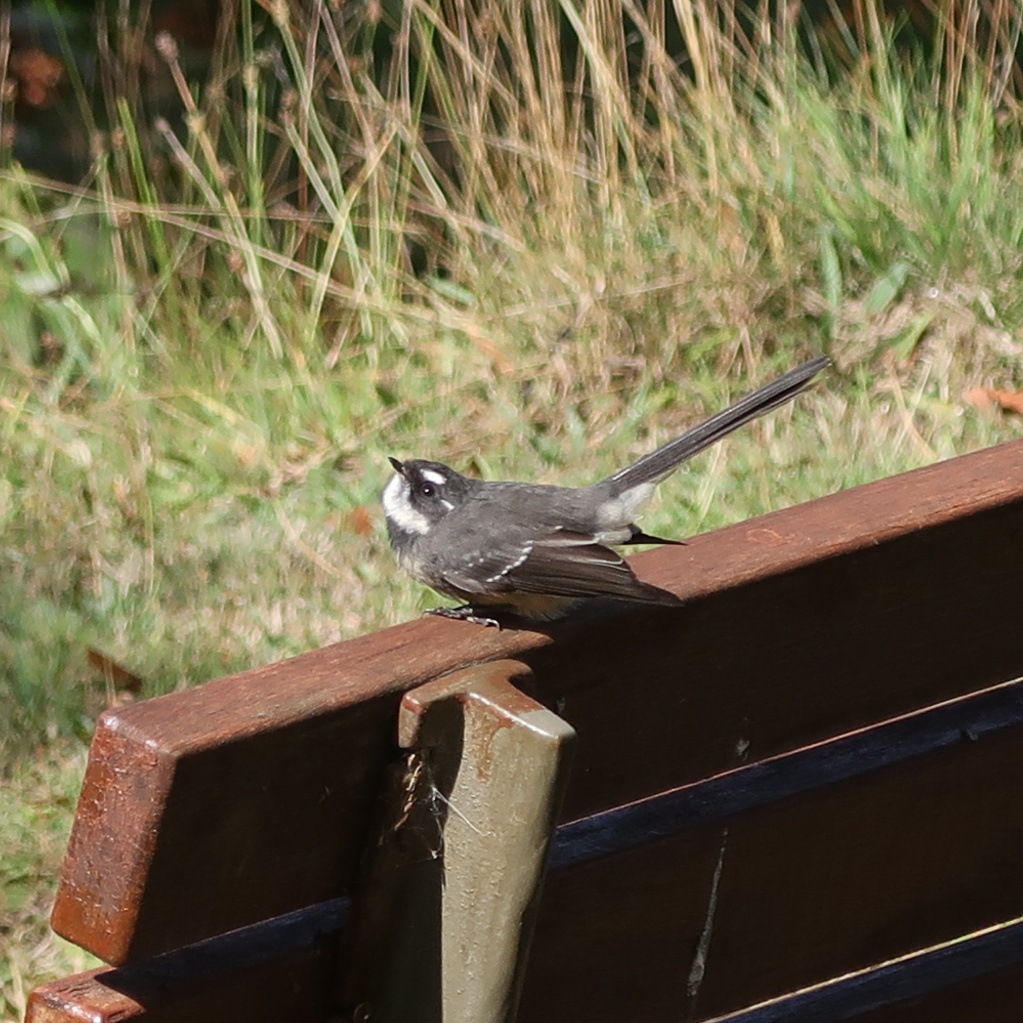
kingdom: Animalia
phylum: Chordata
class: Aves
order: Passeriformes
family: Rhipiduridae
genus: Rhipidura
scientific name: Rhipidura albiscapa
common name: Grey fantail
